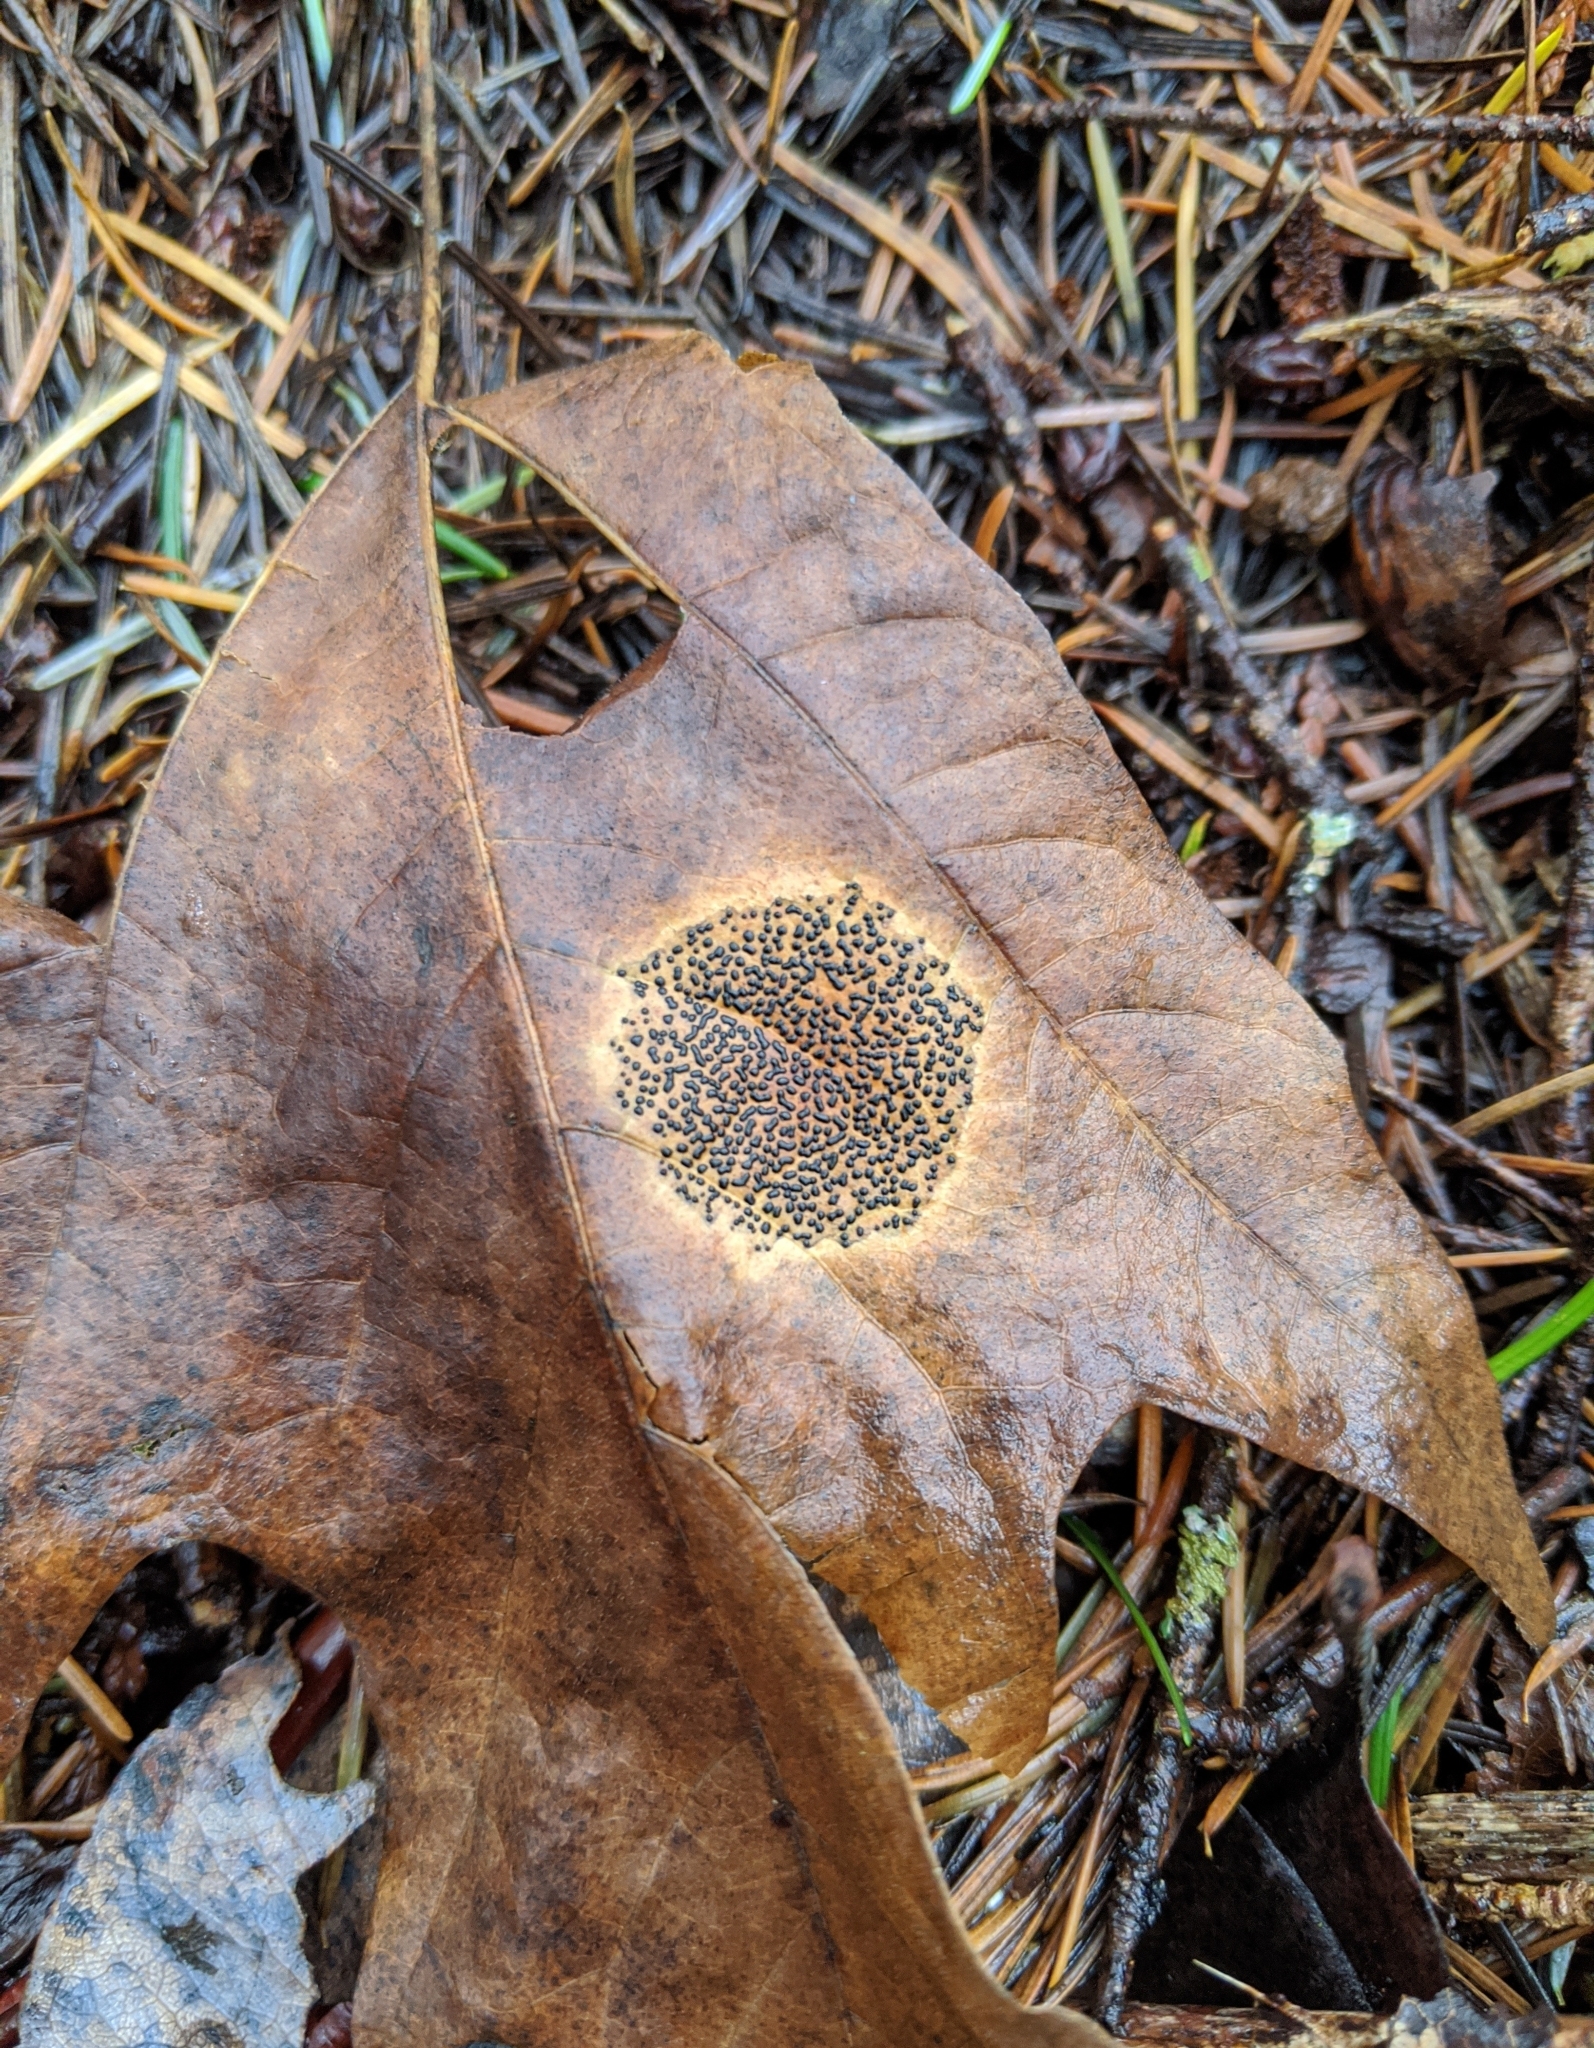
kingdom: Fungi
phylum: Ascomycota
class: Leotiomycetes
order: Rhytismatales
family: Rhytismataceae
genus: Rhytisma
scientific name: Rhytisma punctatum
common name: Speckled tar spot
